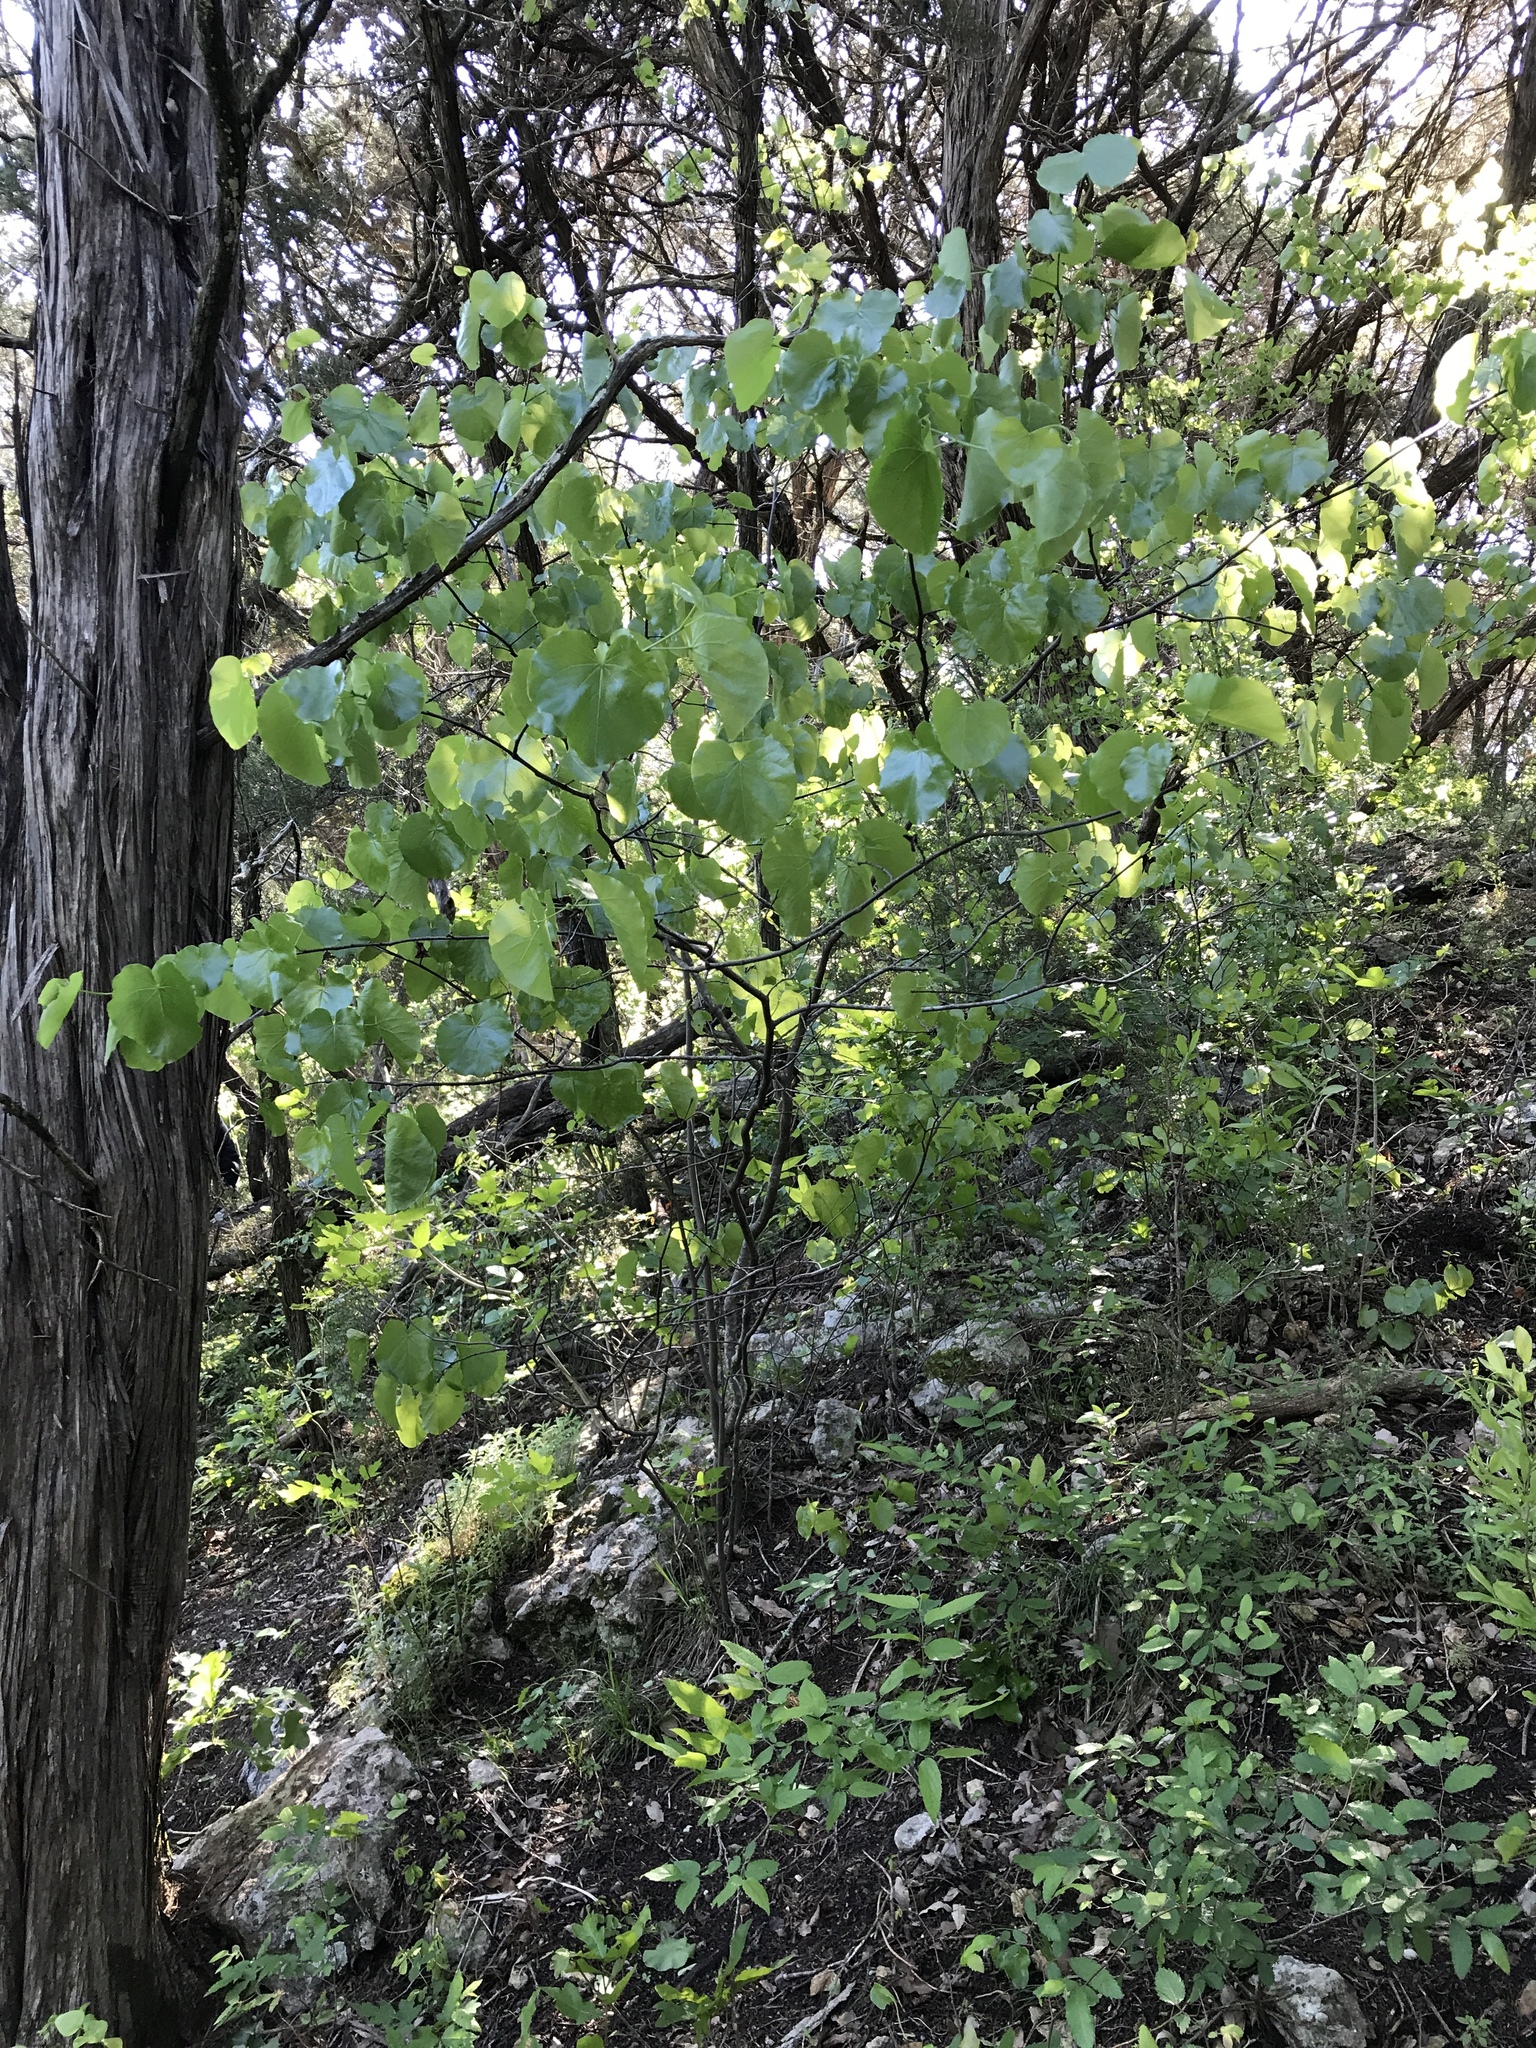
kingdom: Plantae
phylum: Tracheophyta
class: Magnoliopsida
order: Fabales
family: Fabaceae
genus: Cercis
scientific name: Cercis canadensis
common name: Eastern redbud
